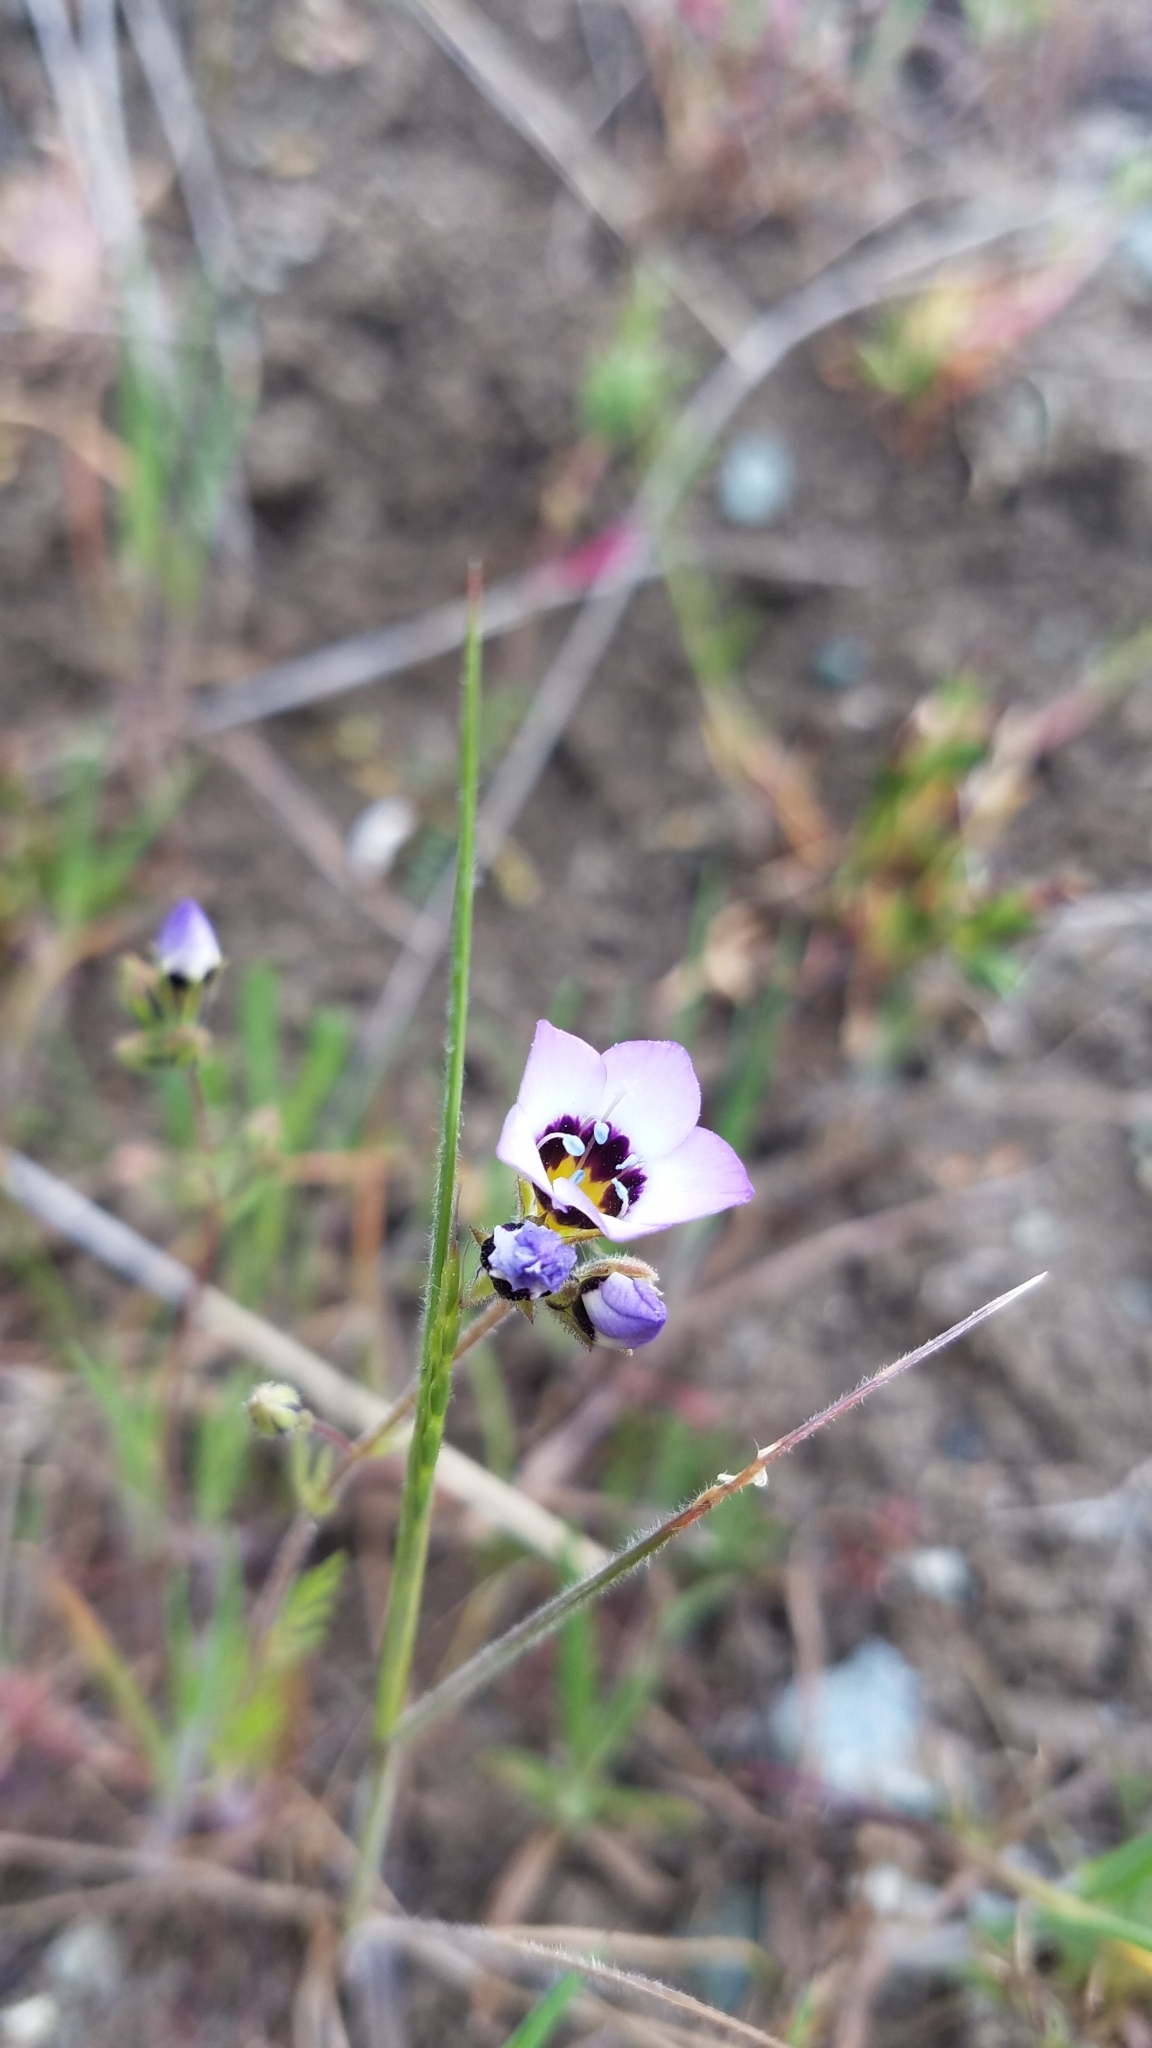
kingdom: Plantae
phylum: Tracheophyta
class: Magnoliopsida
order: Ericales
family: Polemoniaceae
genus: Gilia
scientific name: Gilia tricolor
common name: Bird's-eyes
